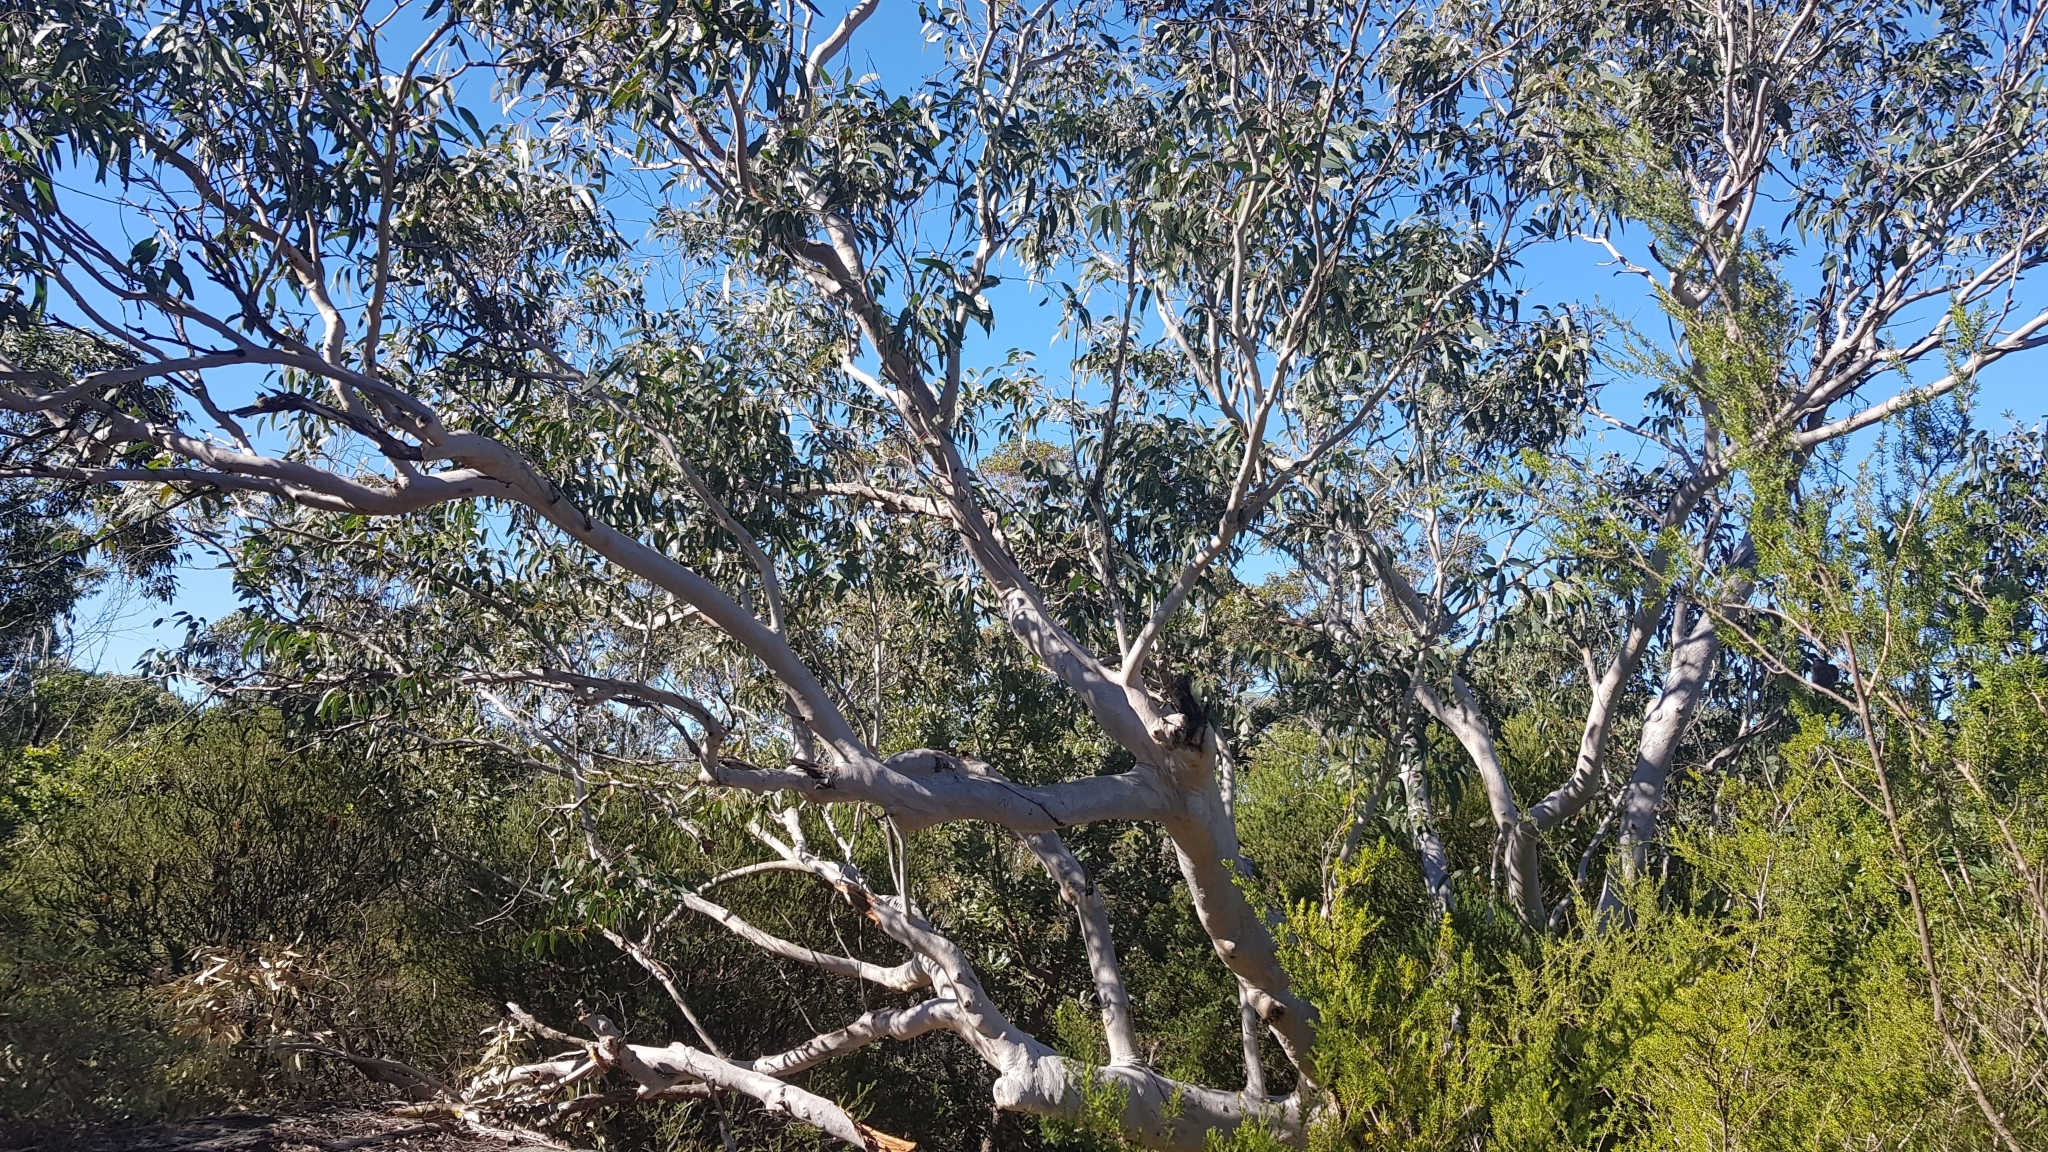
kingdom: Plantae
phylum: Tracheophyta
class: Magnoliopsida
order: Myrtales
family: Myrtaceae
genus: Eucalyptus
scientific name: Eucalyptus haemastoma
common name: Scribbly-gum
